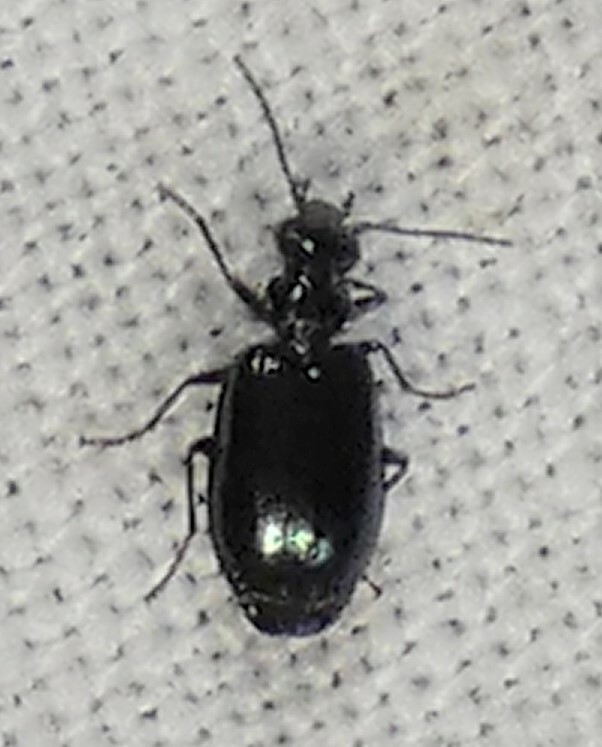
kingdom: Animalia
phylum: Arthropoda
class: Insecta
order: Coleoptera
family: Carabidae
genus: Lebia
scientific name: Lebia marginicollis
